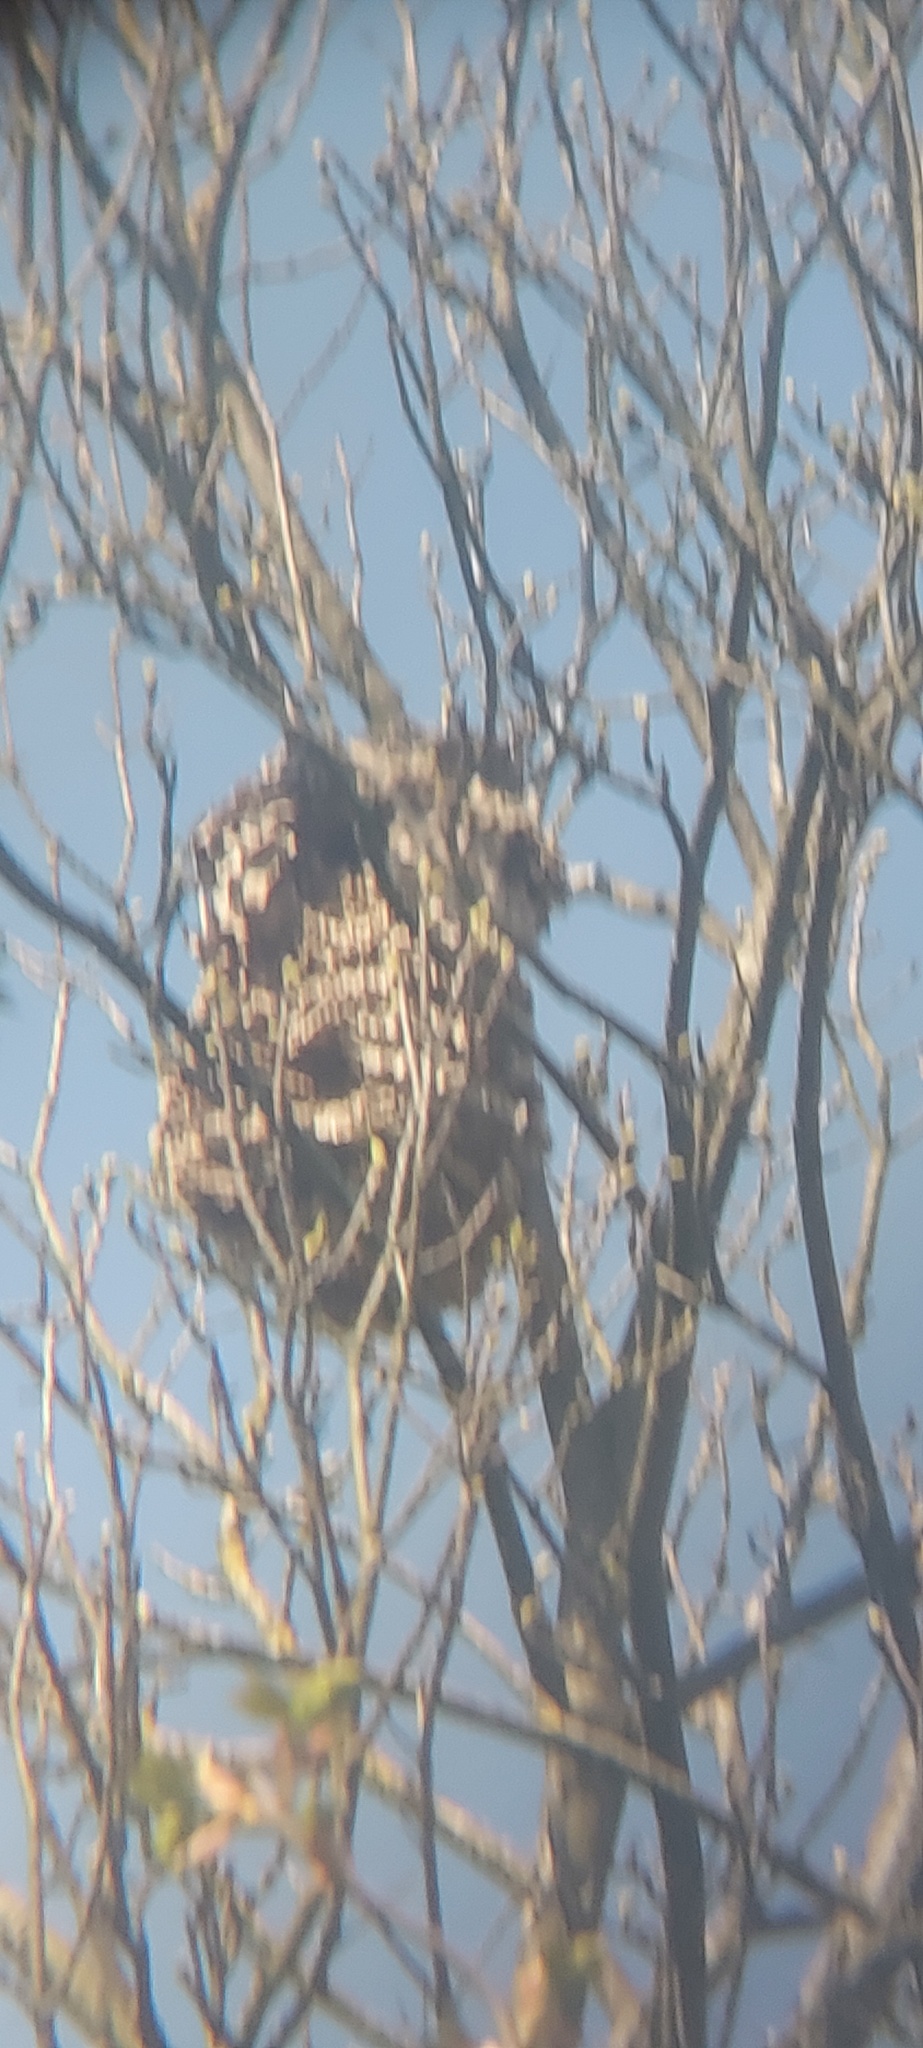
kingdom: Animalia
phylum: Arthropoda
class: Insecta
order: Hymenoptera
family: Vespidae
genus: Vespa
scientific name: Vespa velutina
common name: Asian hornet
